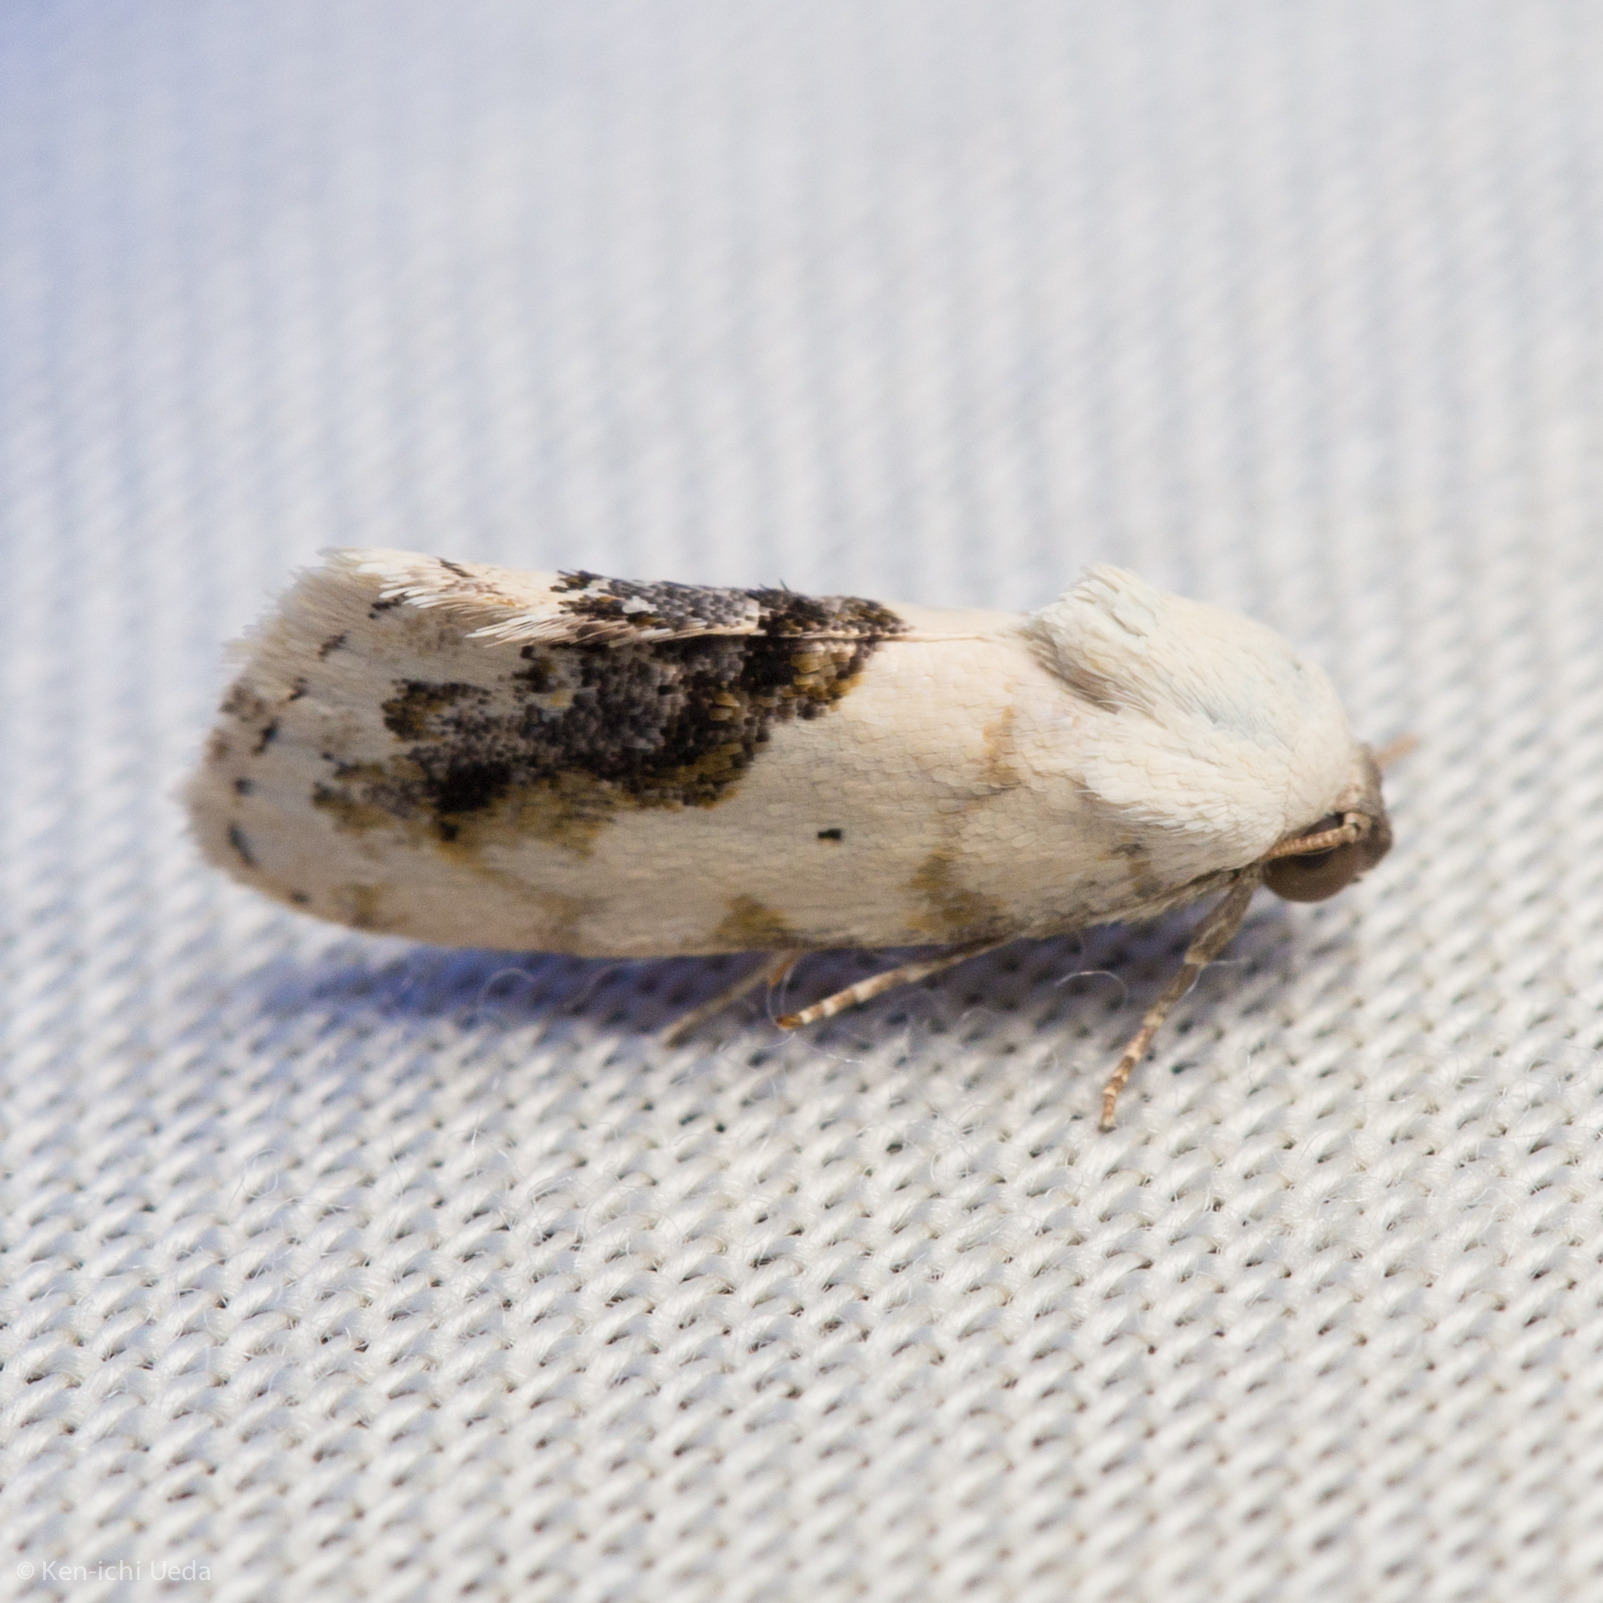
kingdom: Animalia
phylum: Arthropoda
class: Insecta
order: Lepidoptera
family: Noctuidae
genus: Acontia
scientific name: Acontia erastrioides
